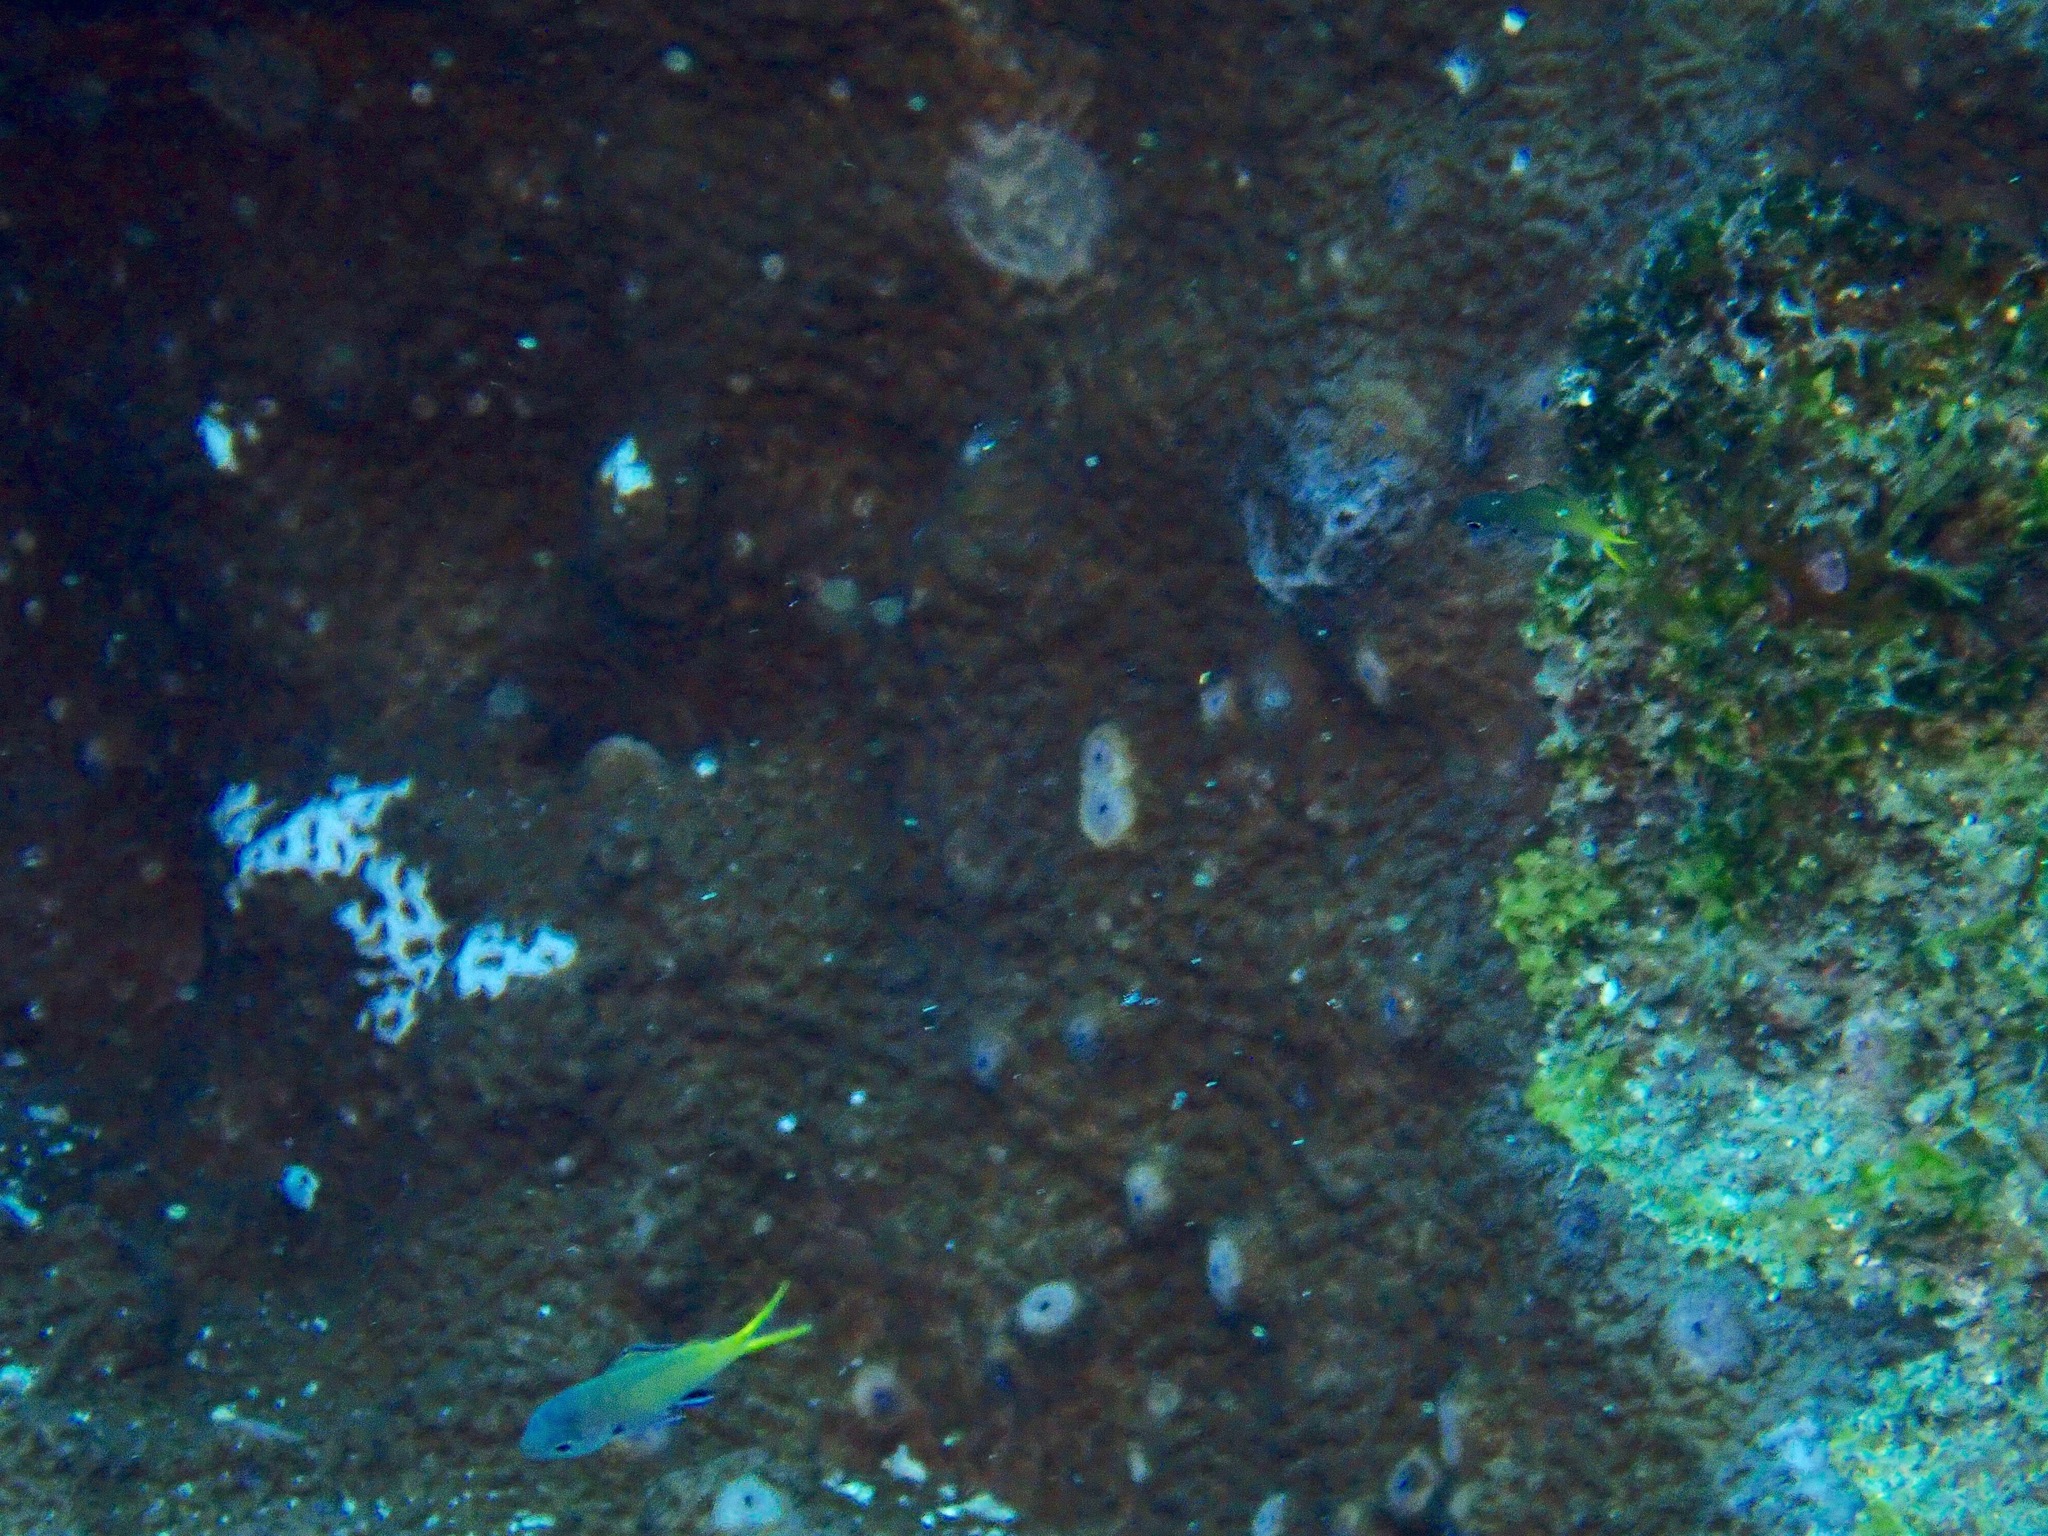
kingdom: Animalia
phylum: Chordata
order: Perciformes
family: Pomacentridae
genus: Chromis
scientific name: Chromis kennensis
